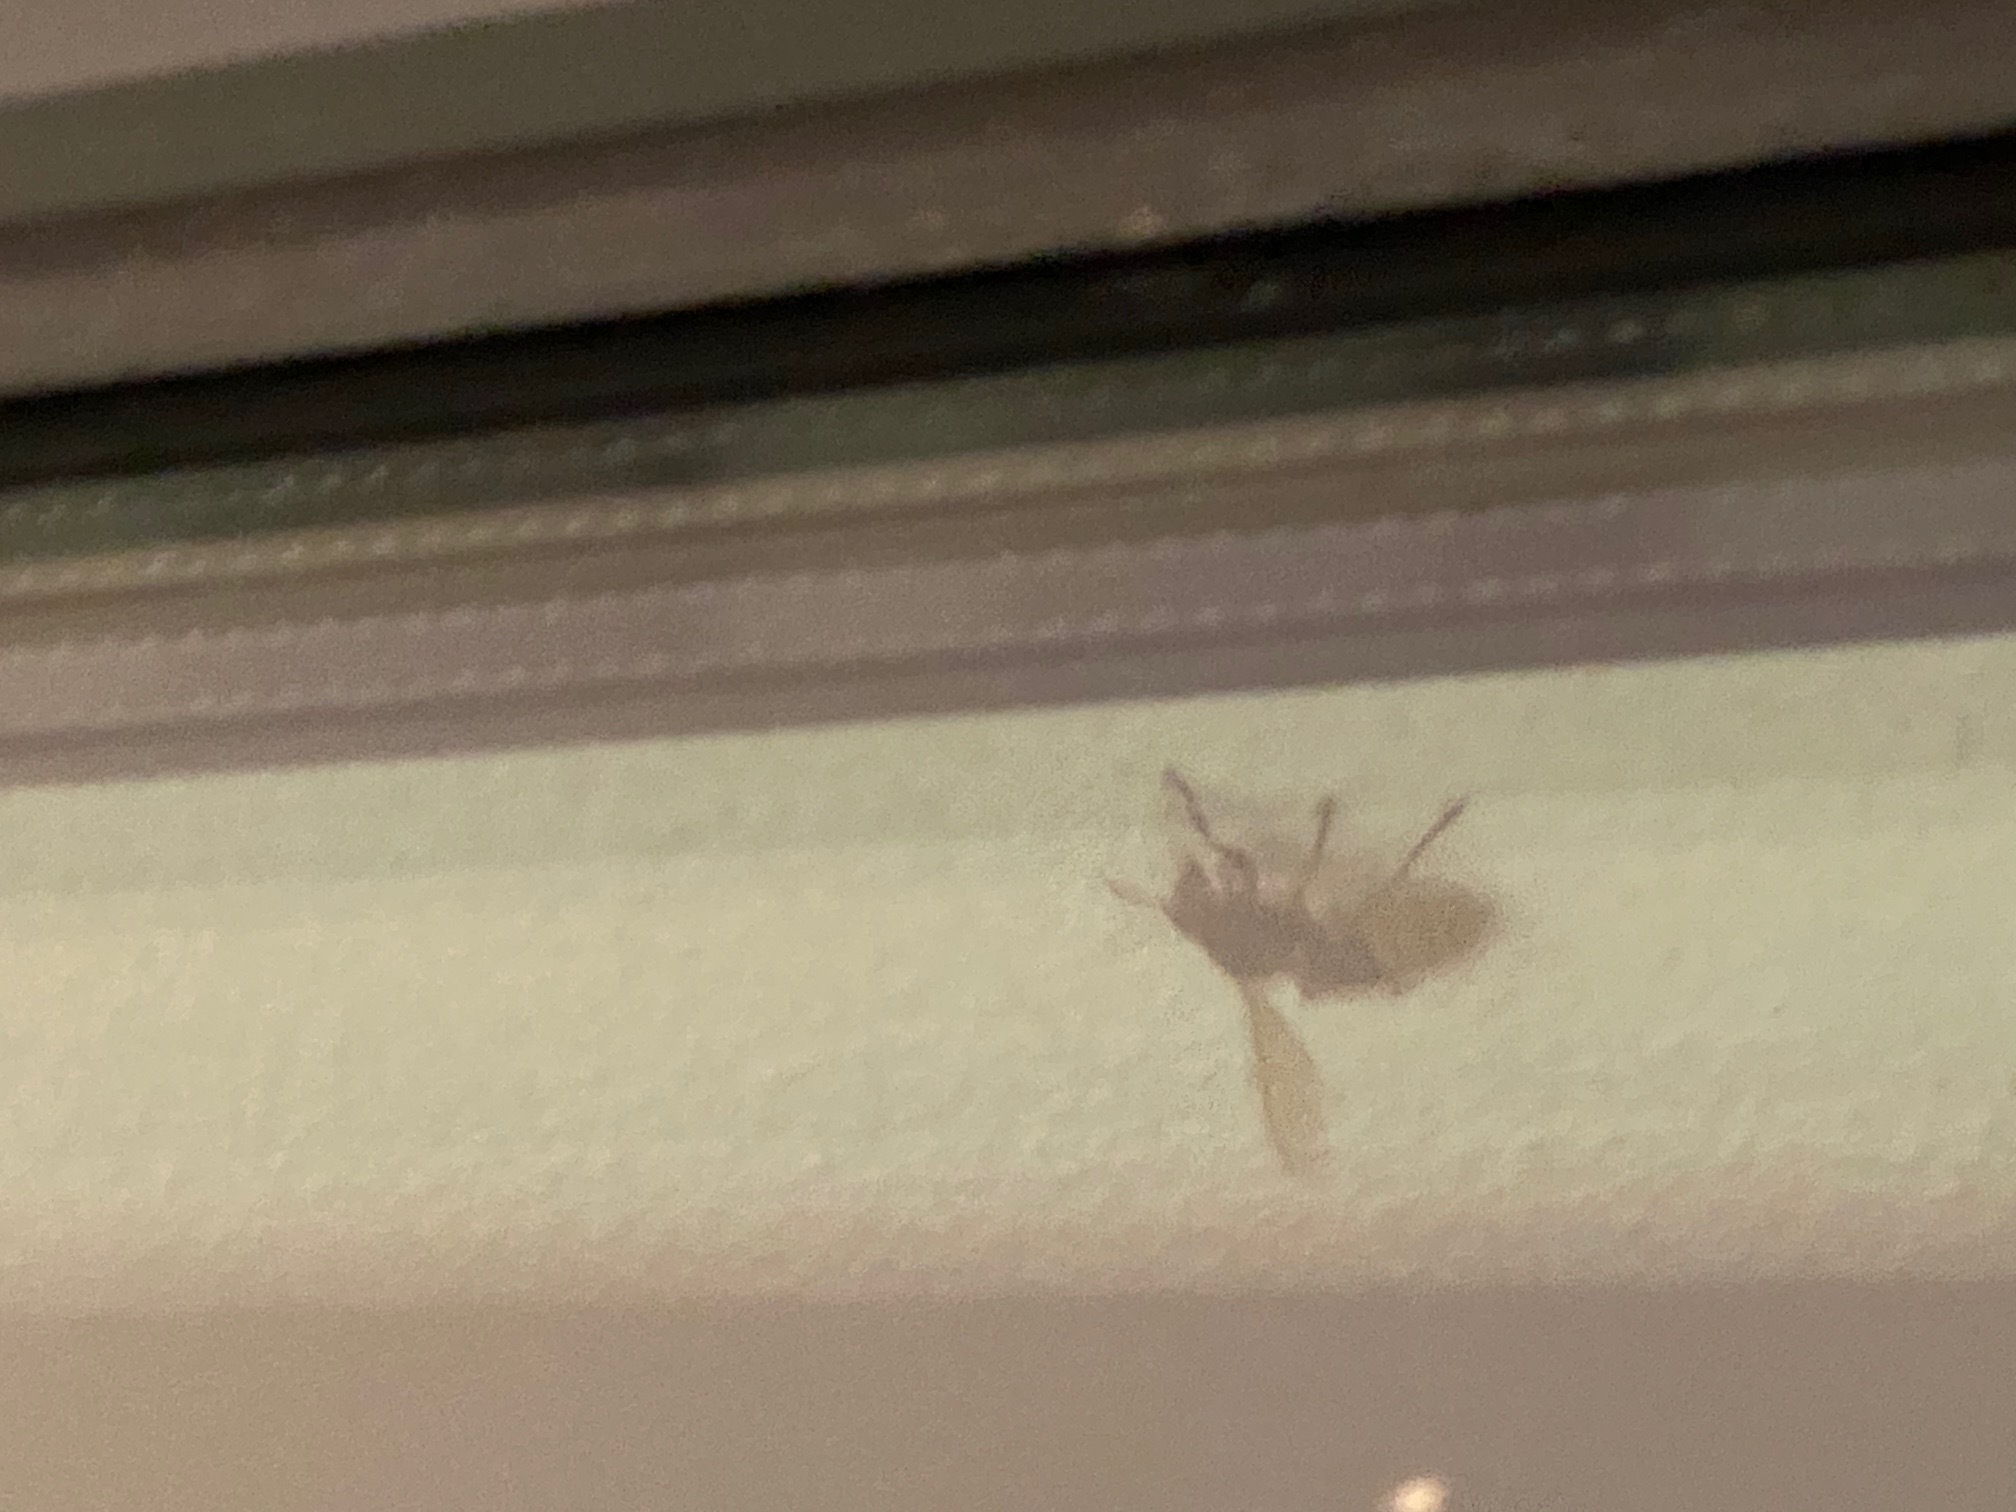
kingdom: Animalia
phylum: Arthropoda
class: Insecta
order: Hymenoptera
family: Vespidae
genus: Vespa
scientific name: Vespa crabro
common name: Hornet
